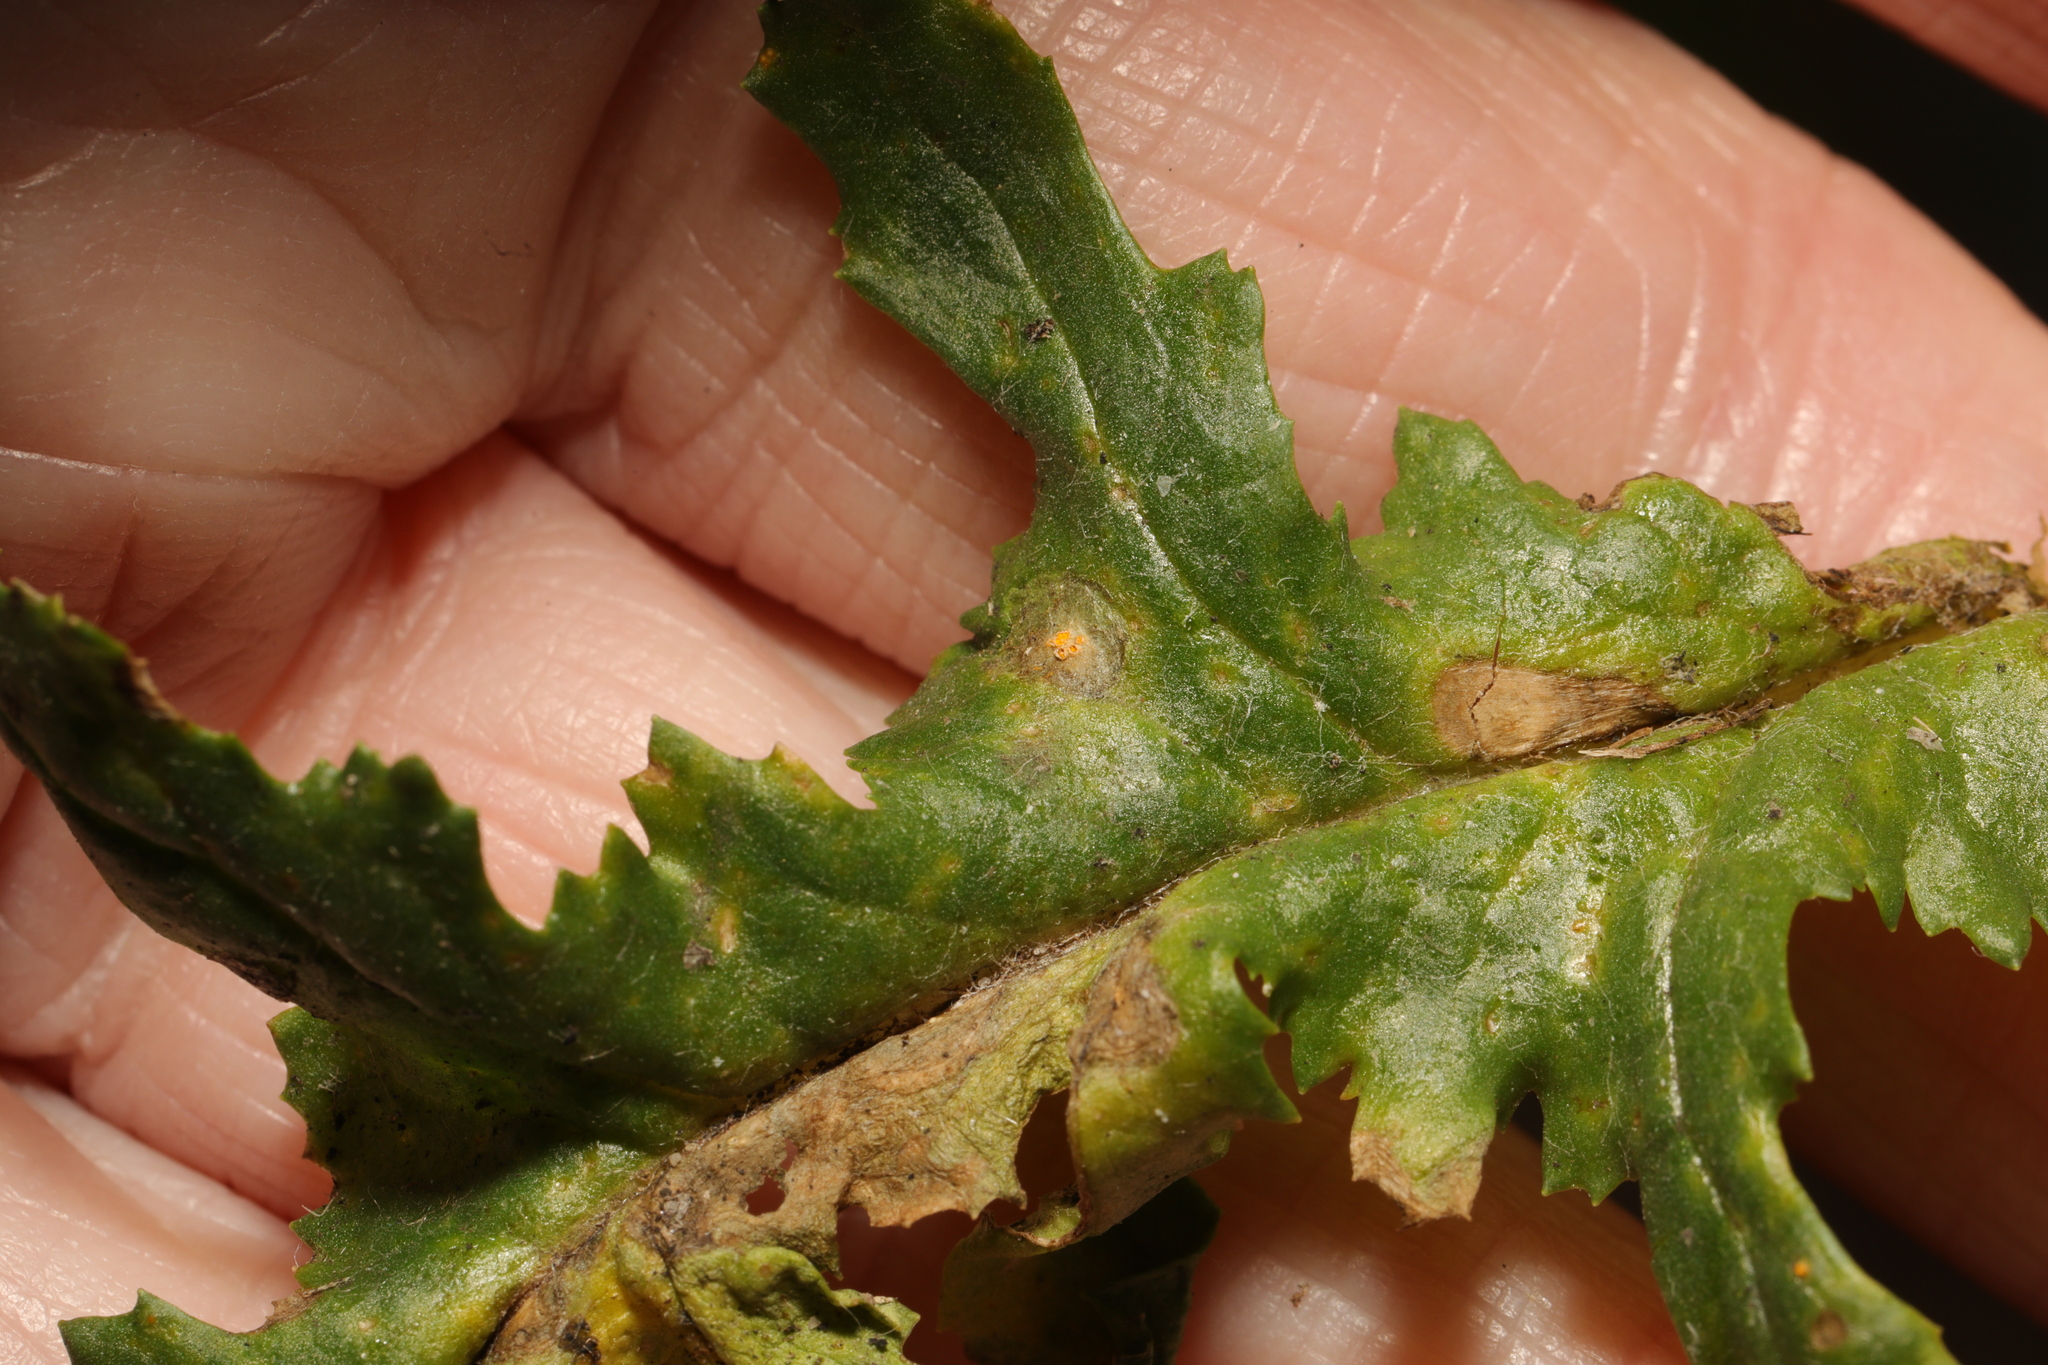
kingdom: Fungi
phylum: Basidiomycota
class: Pucciniomycetes
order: Pucciniales
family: Pucciniaceae
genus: Puccinia
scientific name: Puccinia lagenophorae
